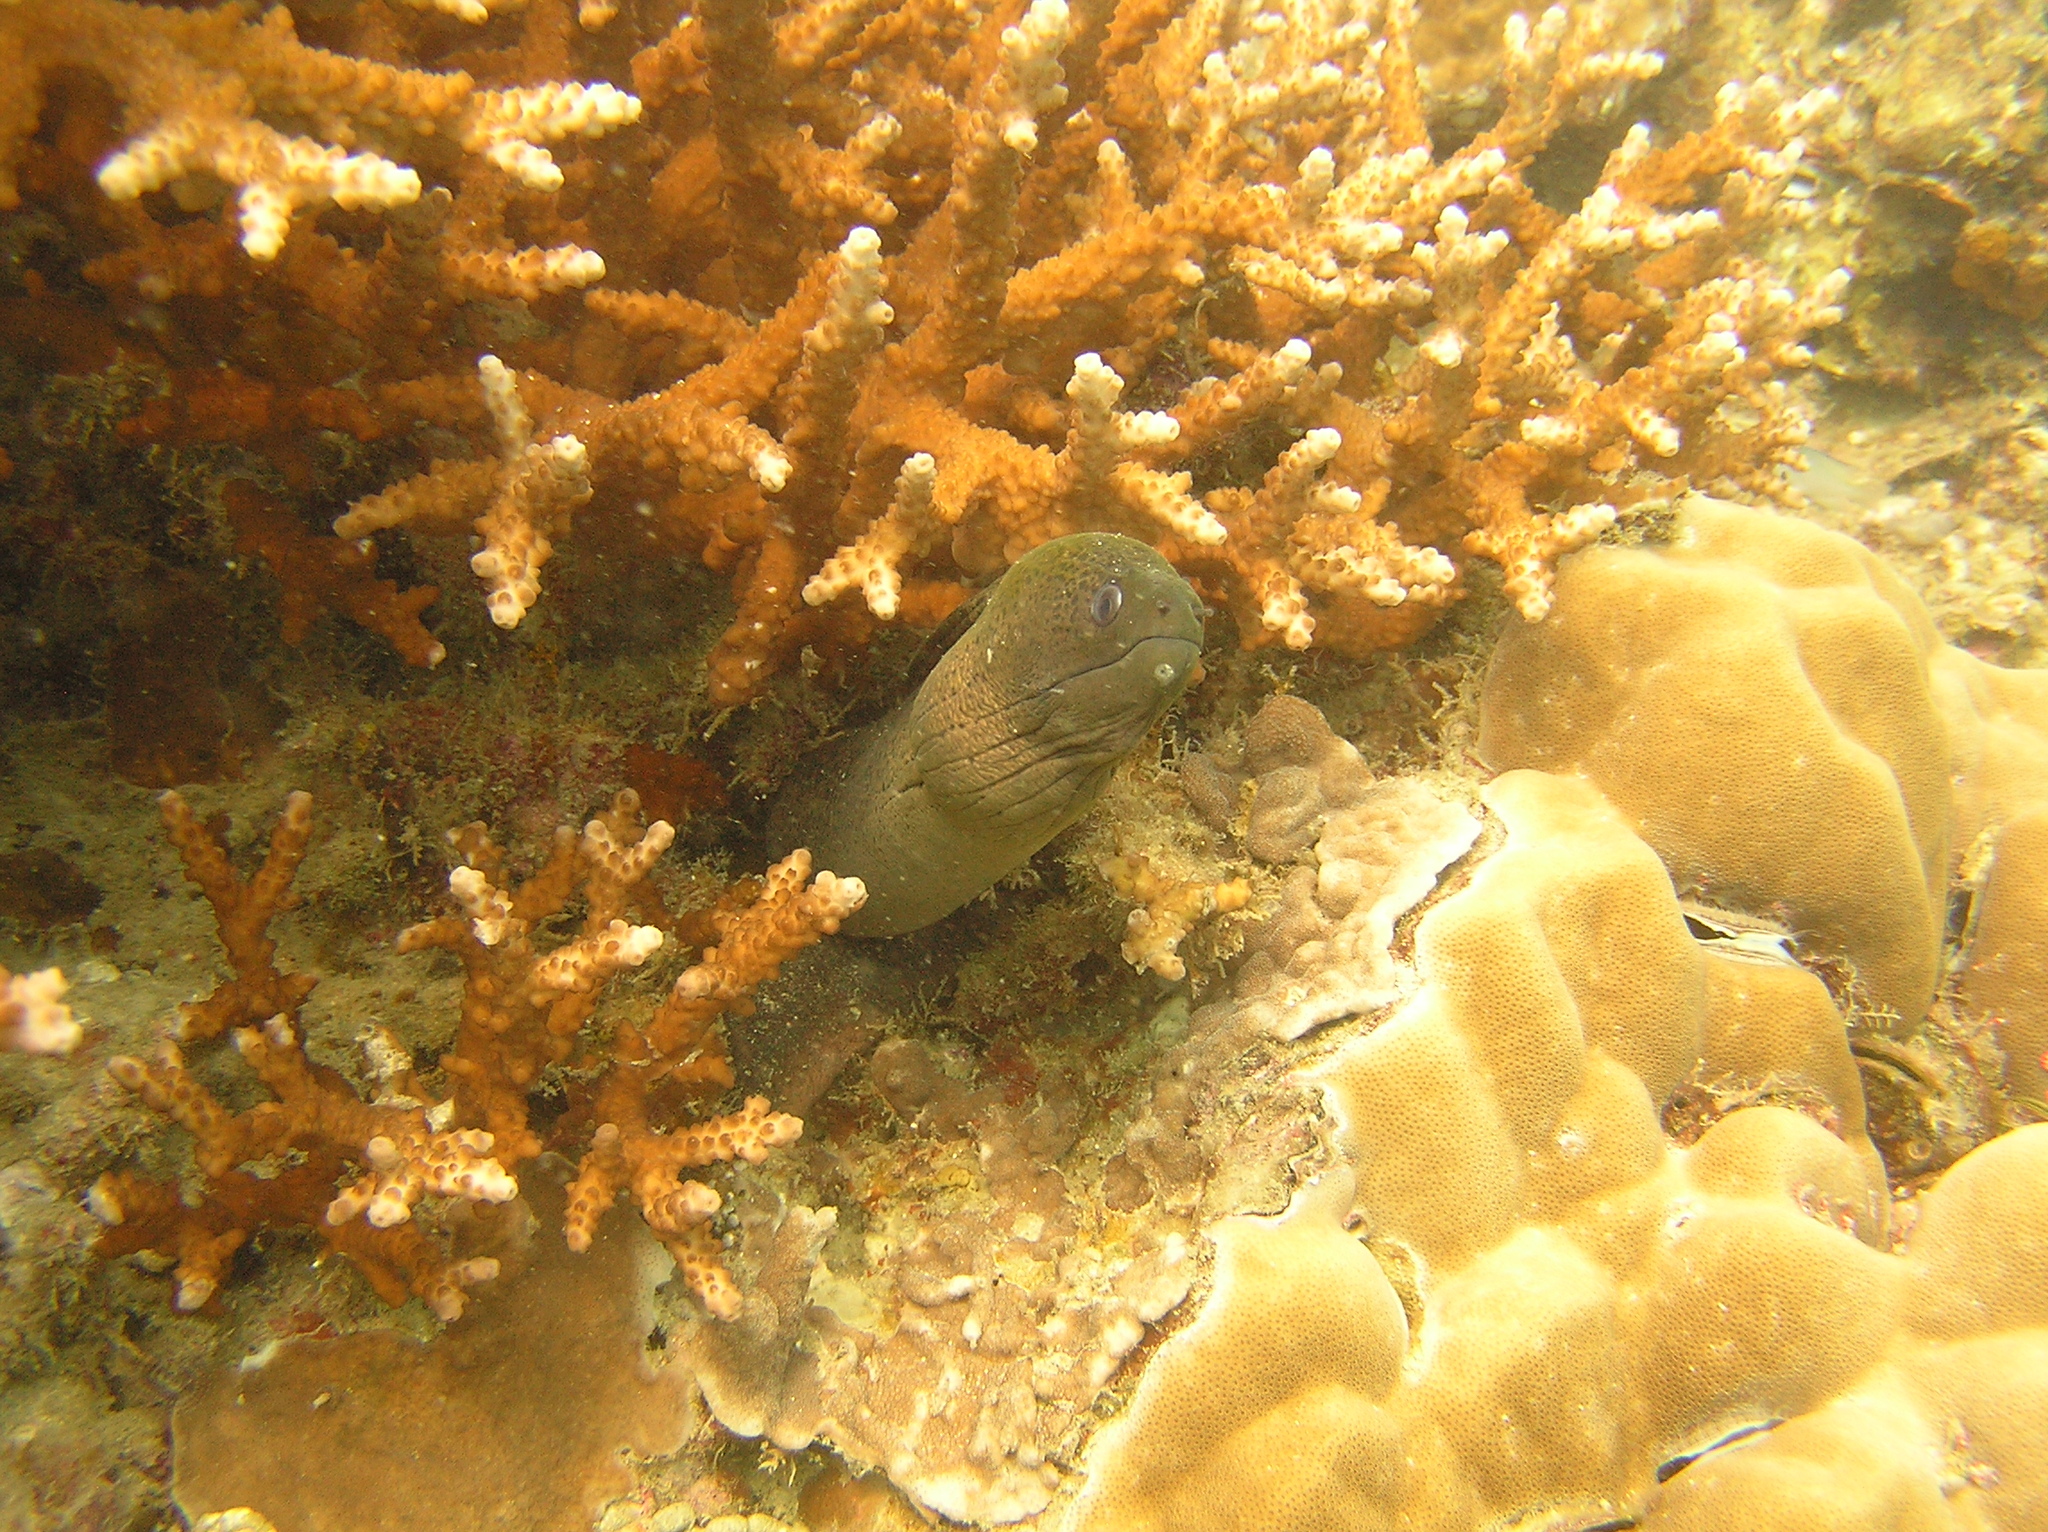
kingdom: Animalia
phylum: Chordata
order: Anguilliformes
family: Muraenidae
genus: Gymnothorax
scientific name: Gymnothorax javanicus
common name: Giant moray
